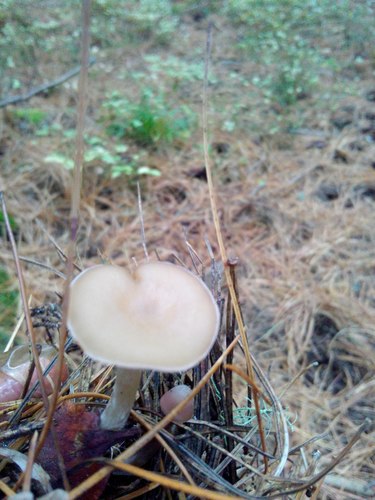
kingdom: Fungi
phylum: Basidiomycota
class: Agaricomycetes
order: Agaricales
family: Tricholomataceae
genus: Clitocybe
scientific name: Clitocybe
